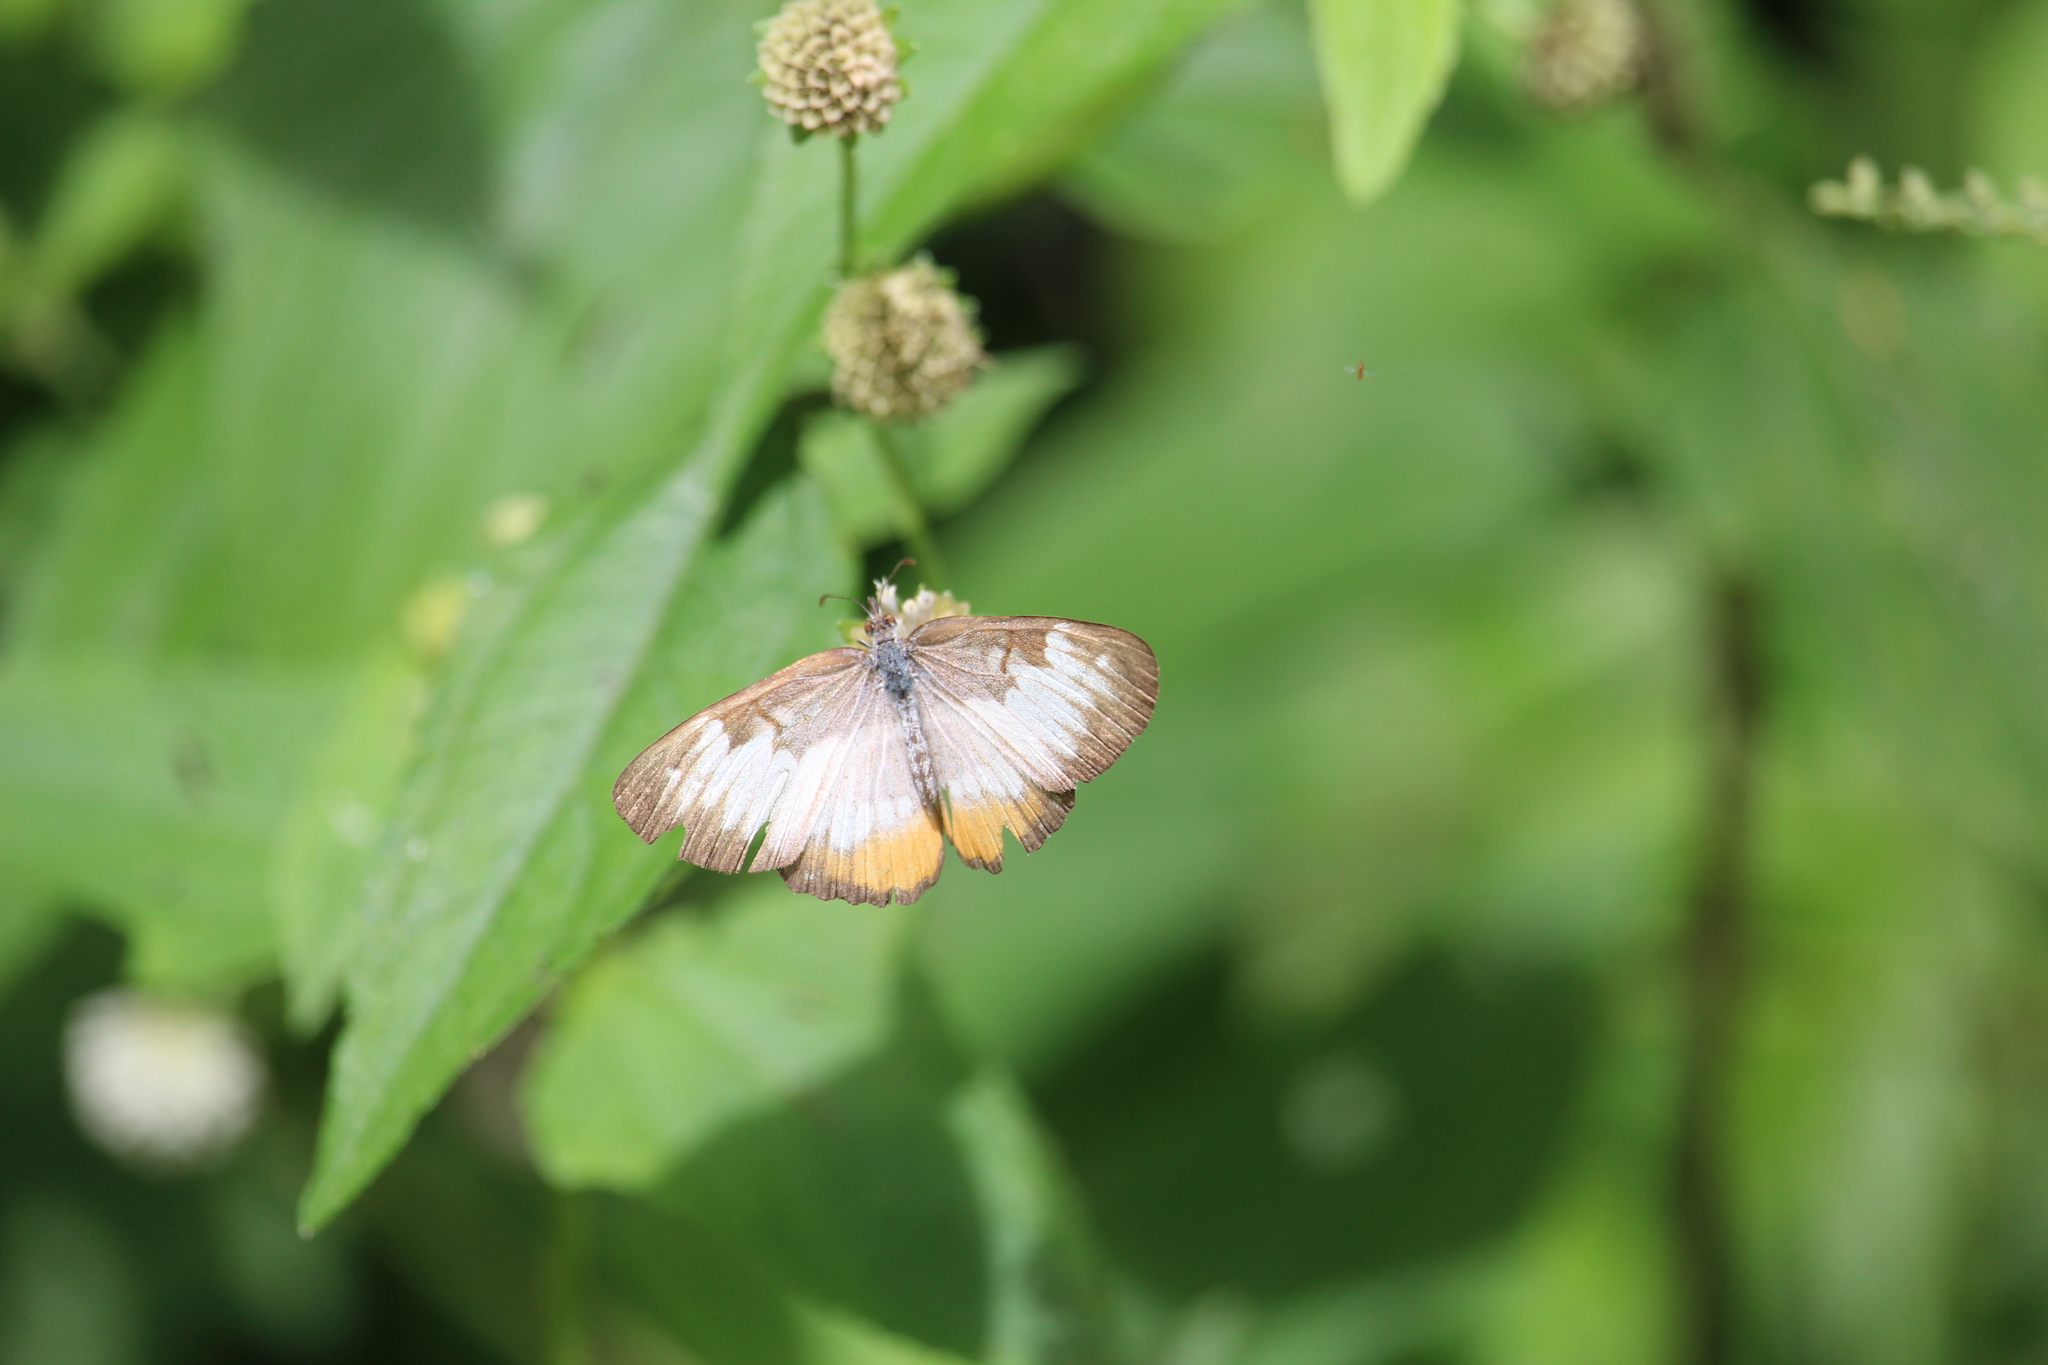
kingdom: Animalia
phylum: Arthropoda
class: Insecta
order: Lepidoptera
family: Nymphalidae
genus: Mestra
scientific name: Mestra amymone
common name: Common mestra
